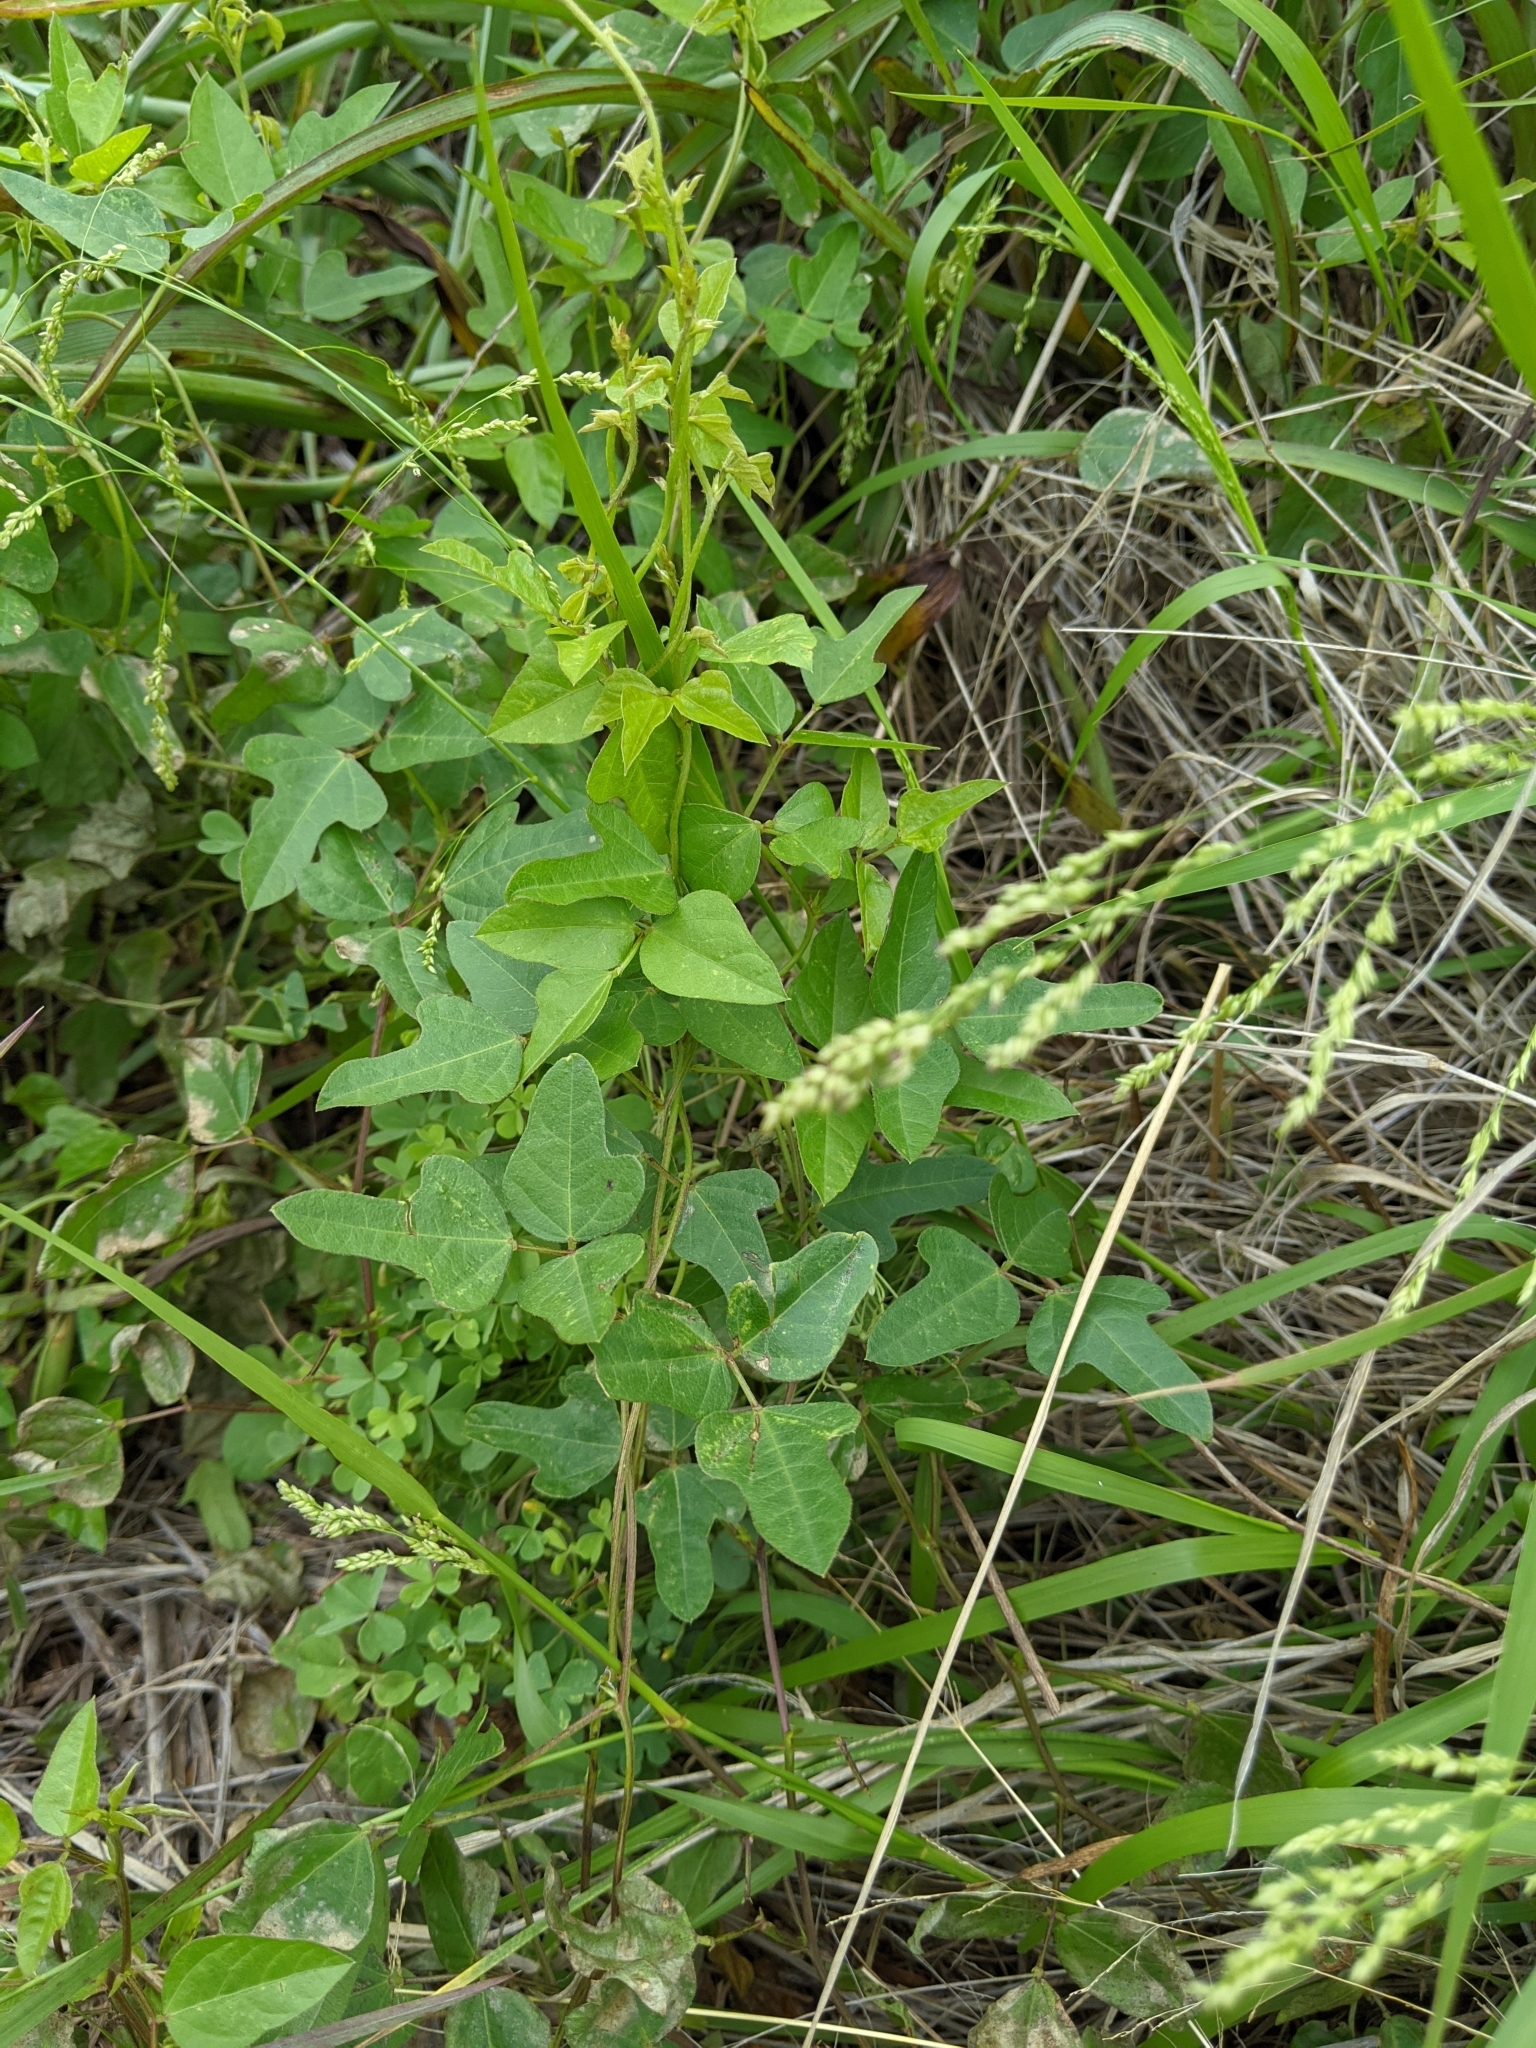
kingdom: Plantae
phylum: Tracheophyta
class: Magnoliopsida
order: Fabales
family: Fabaceae
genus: Strophostyles
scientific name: Strophostyles helvola
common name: Trailing wild bean
